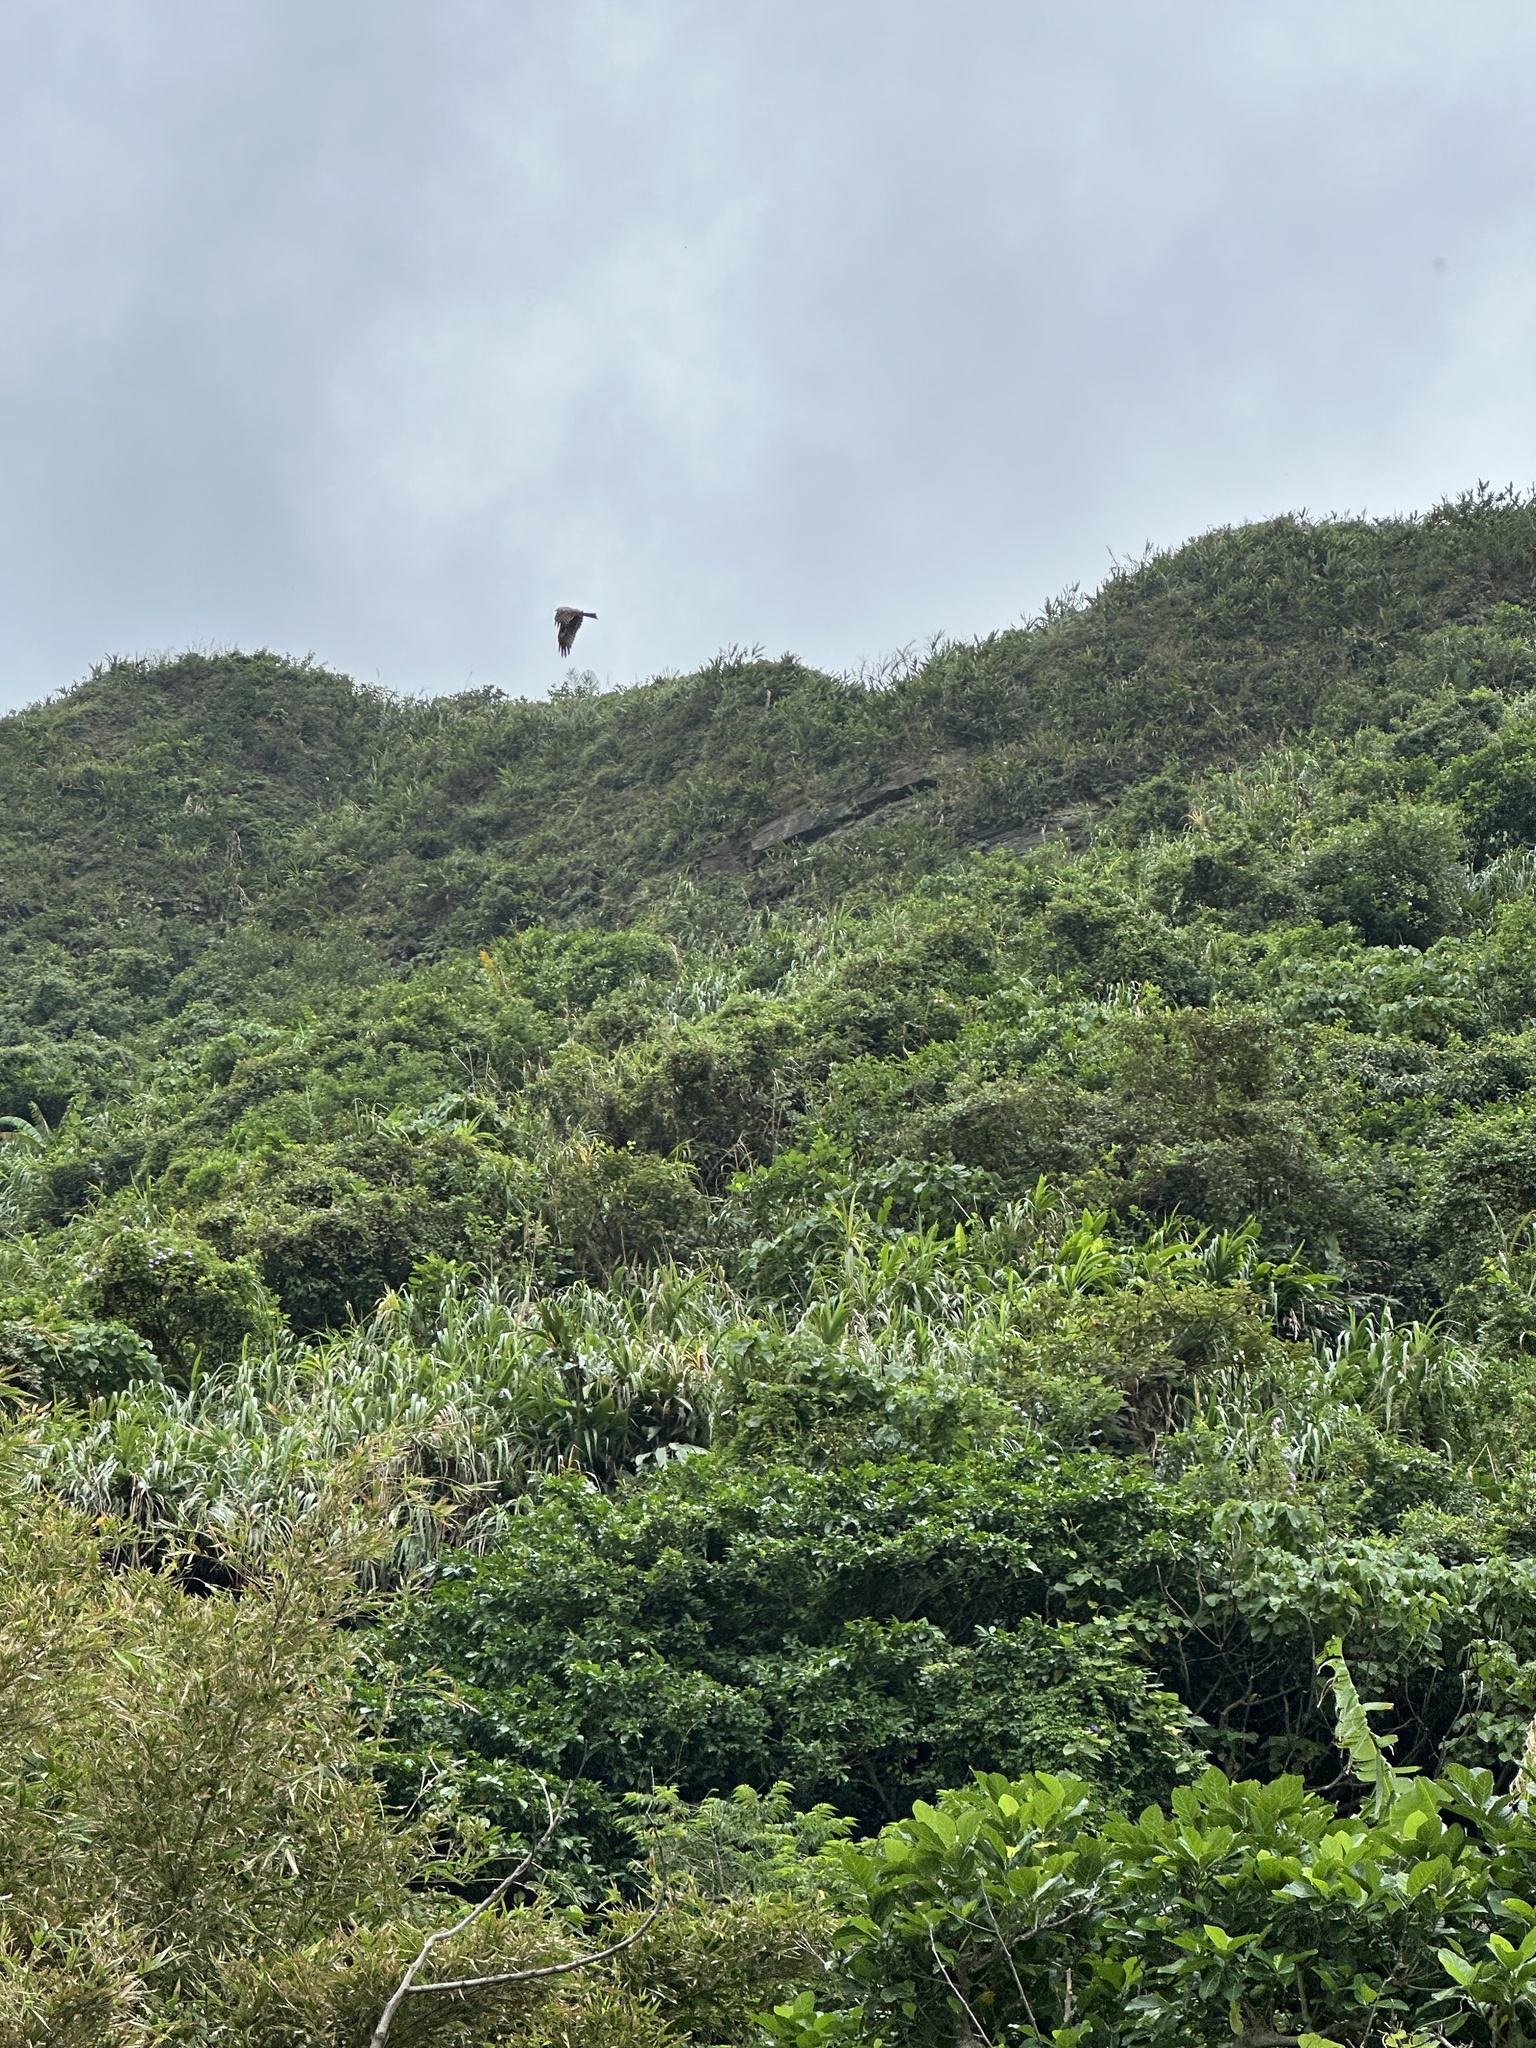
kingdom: Animalia
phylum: Chordata
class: Aves
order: Accipitriformes
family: Accipitridae
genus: Milvus
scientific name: Milvus migrans
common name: Black kite
